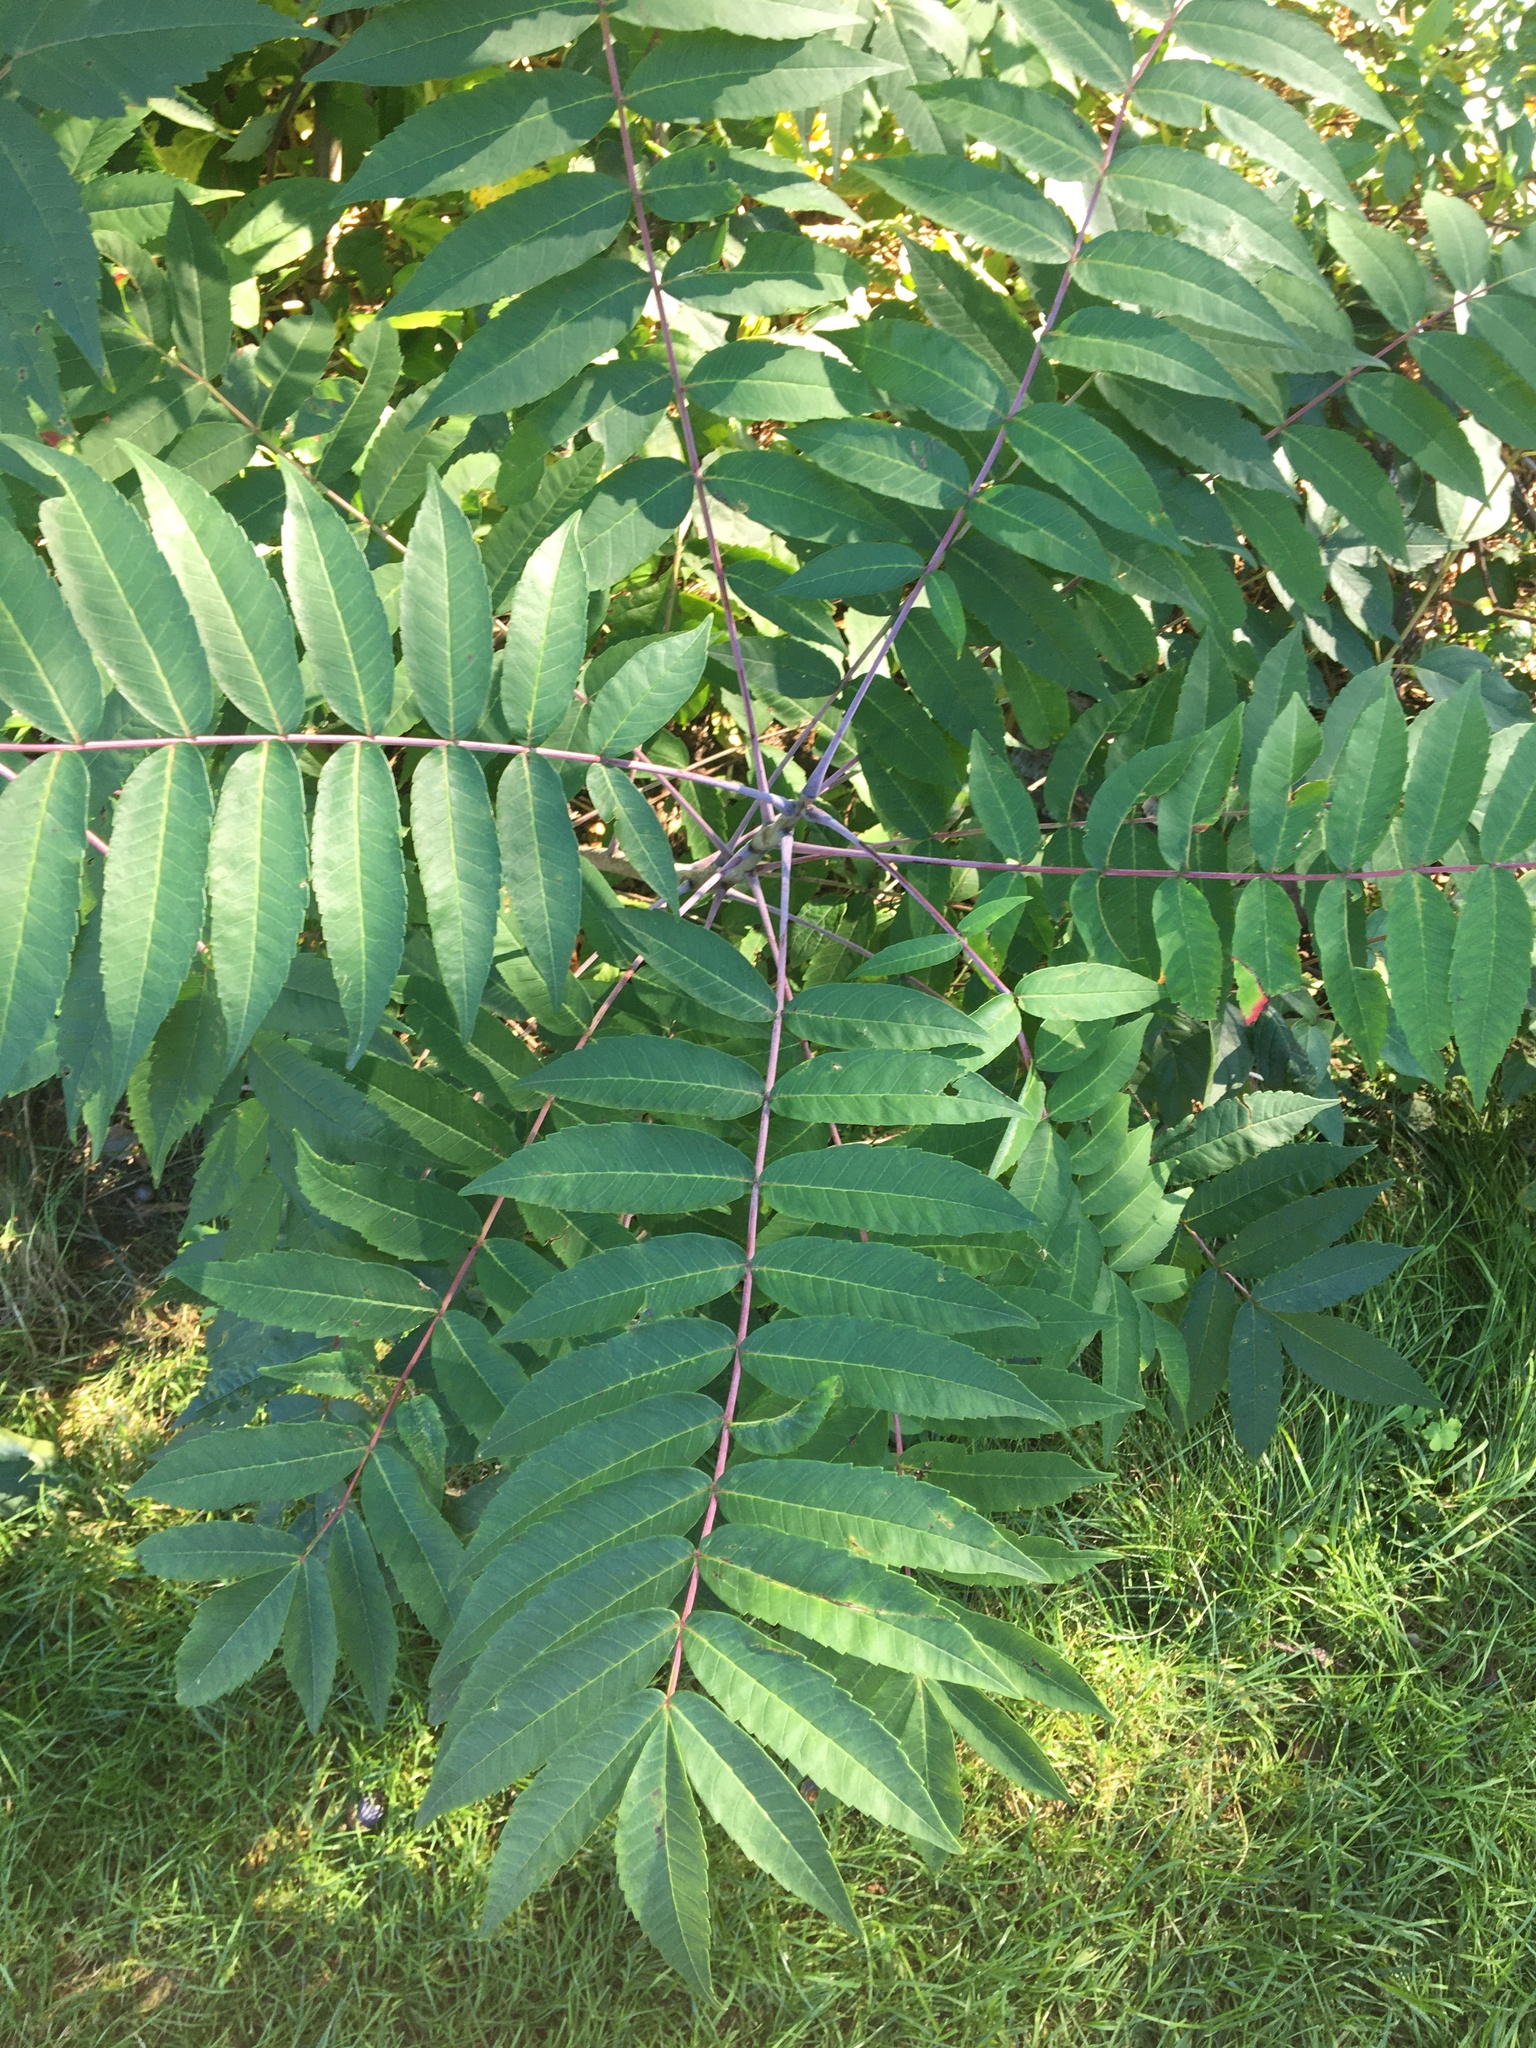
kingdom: Plantae
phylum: Tracheophyta
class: Magnoliopsida
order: Sapindales
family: Anacardiaceae
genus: Rhus
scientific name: Rhus glabra
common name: Scarlet sumac
